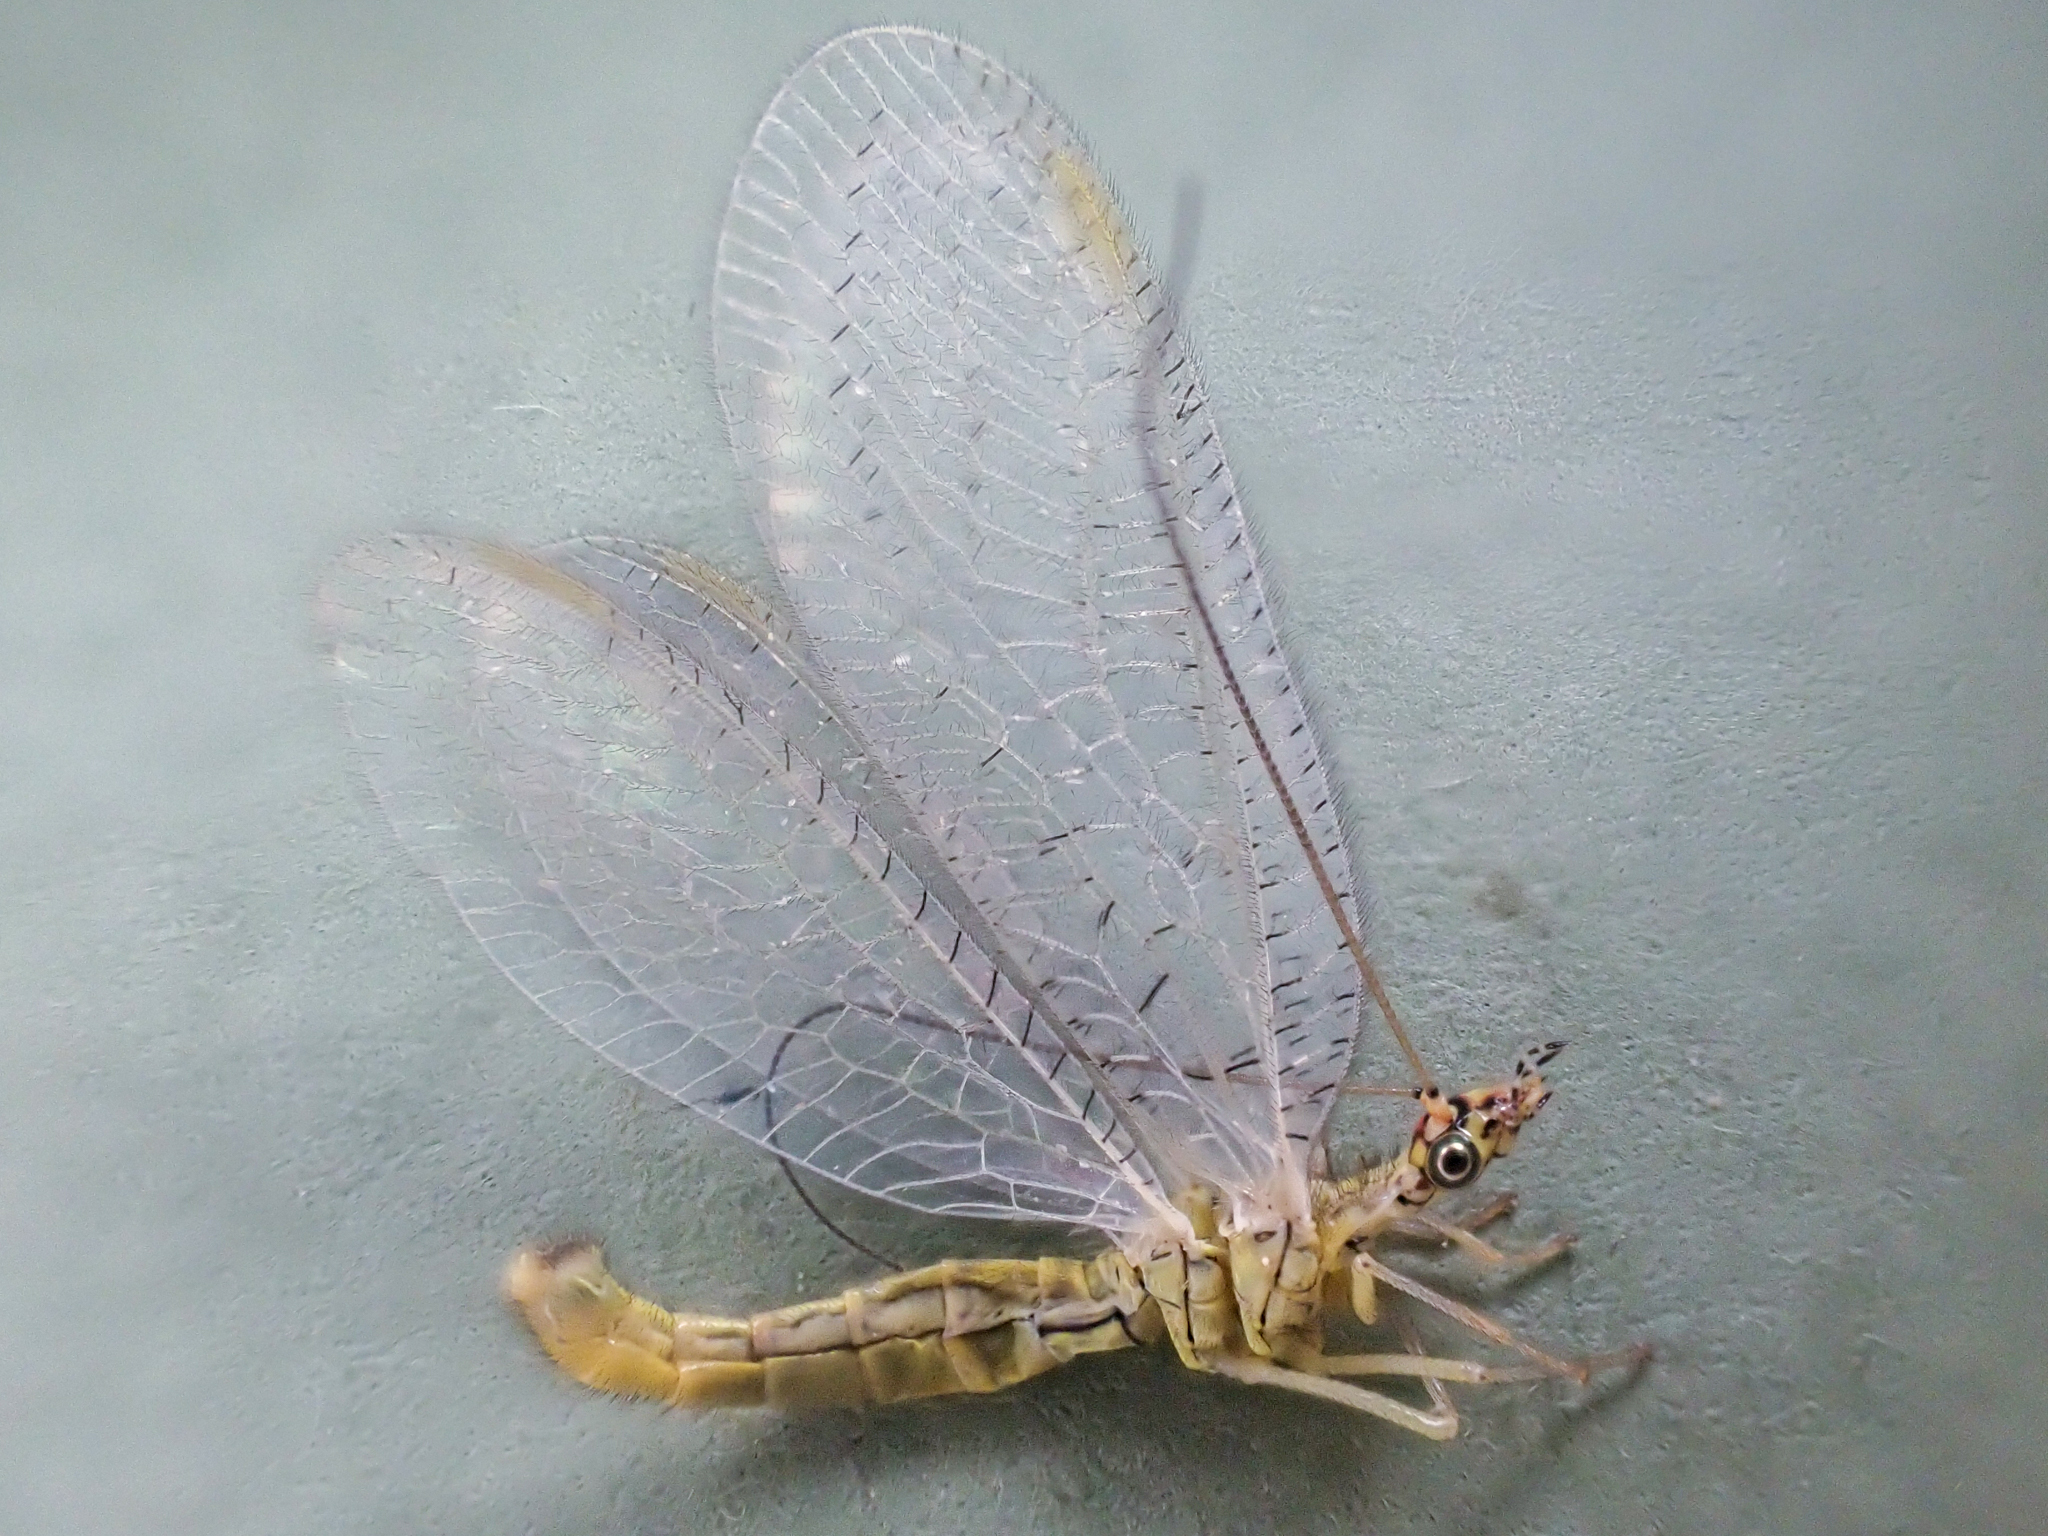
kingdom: Animalia
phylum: Arthropoda
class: Insecta
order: Neuroptera
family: Chrysopidae
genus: Chrysopa
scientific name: Chrysopa pleuralis
